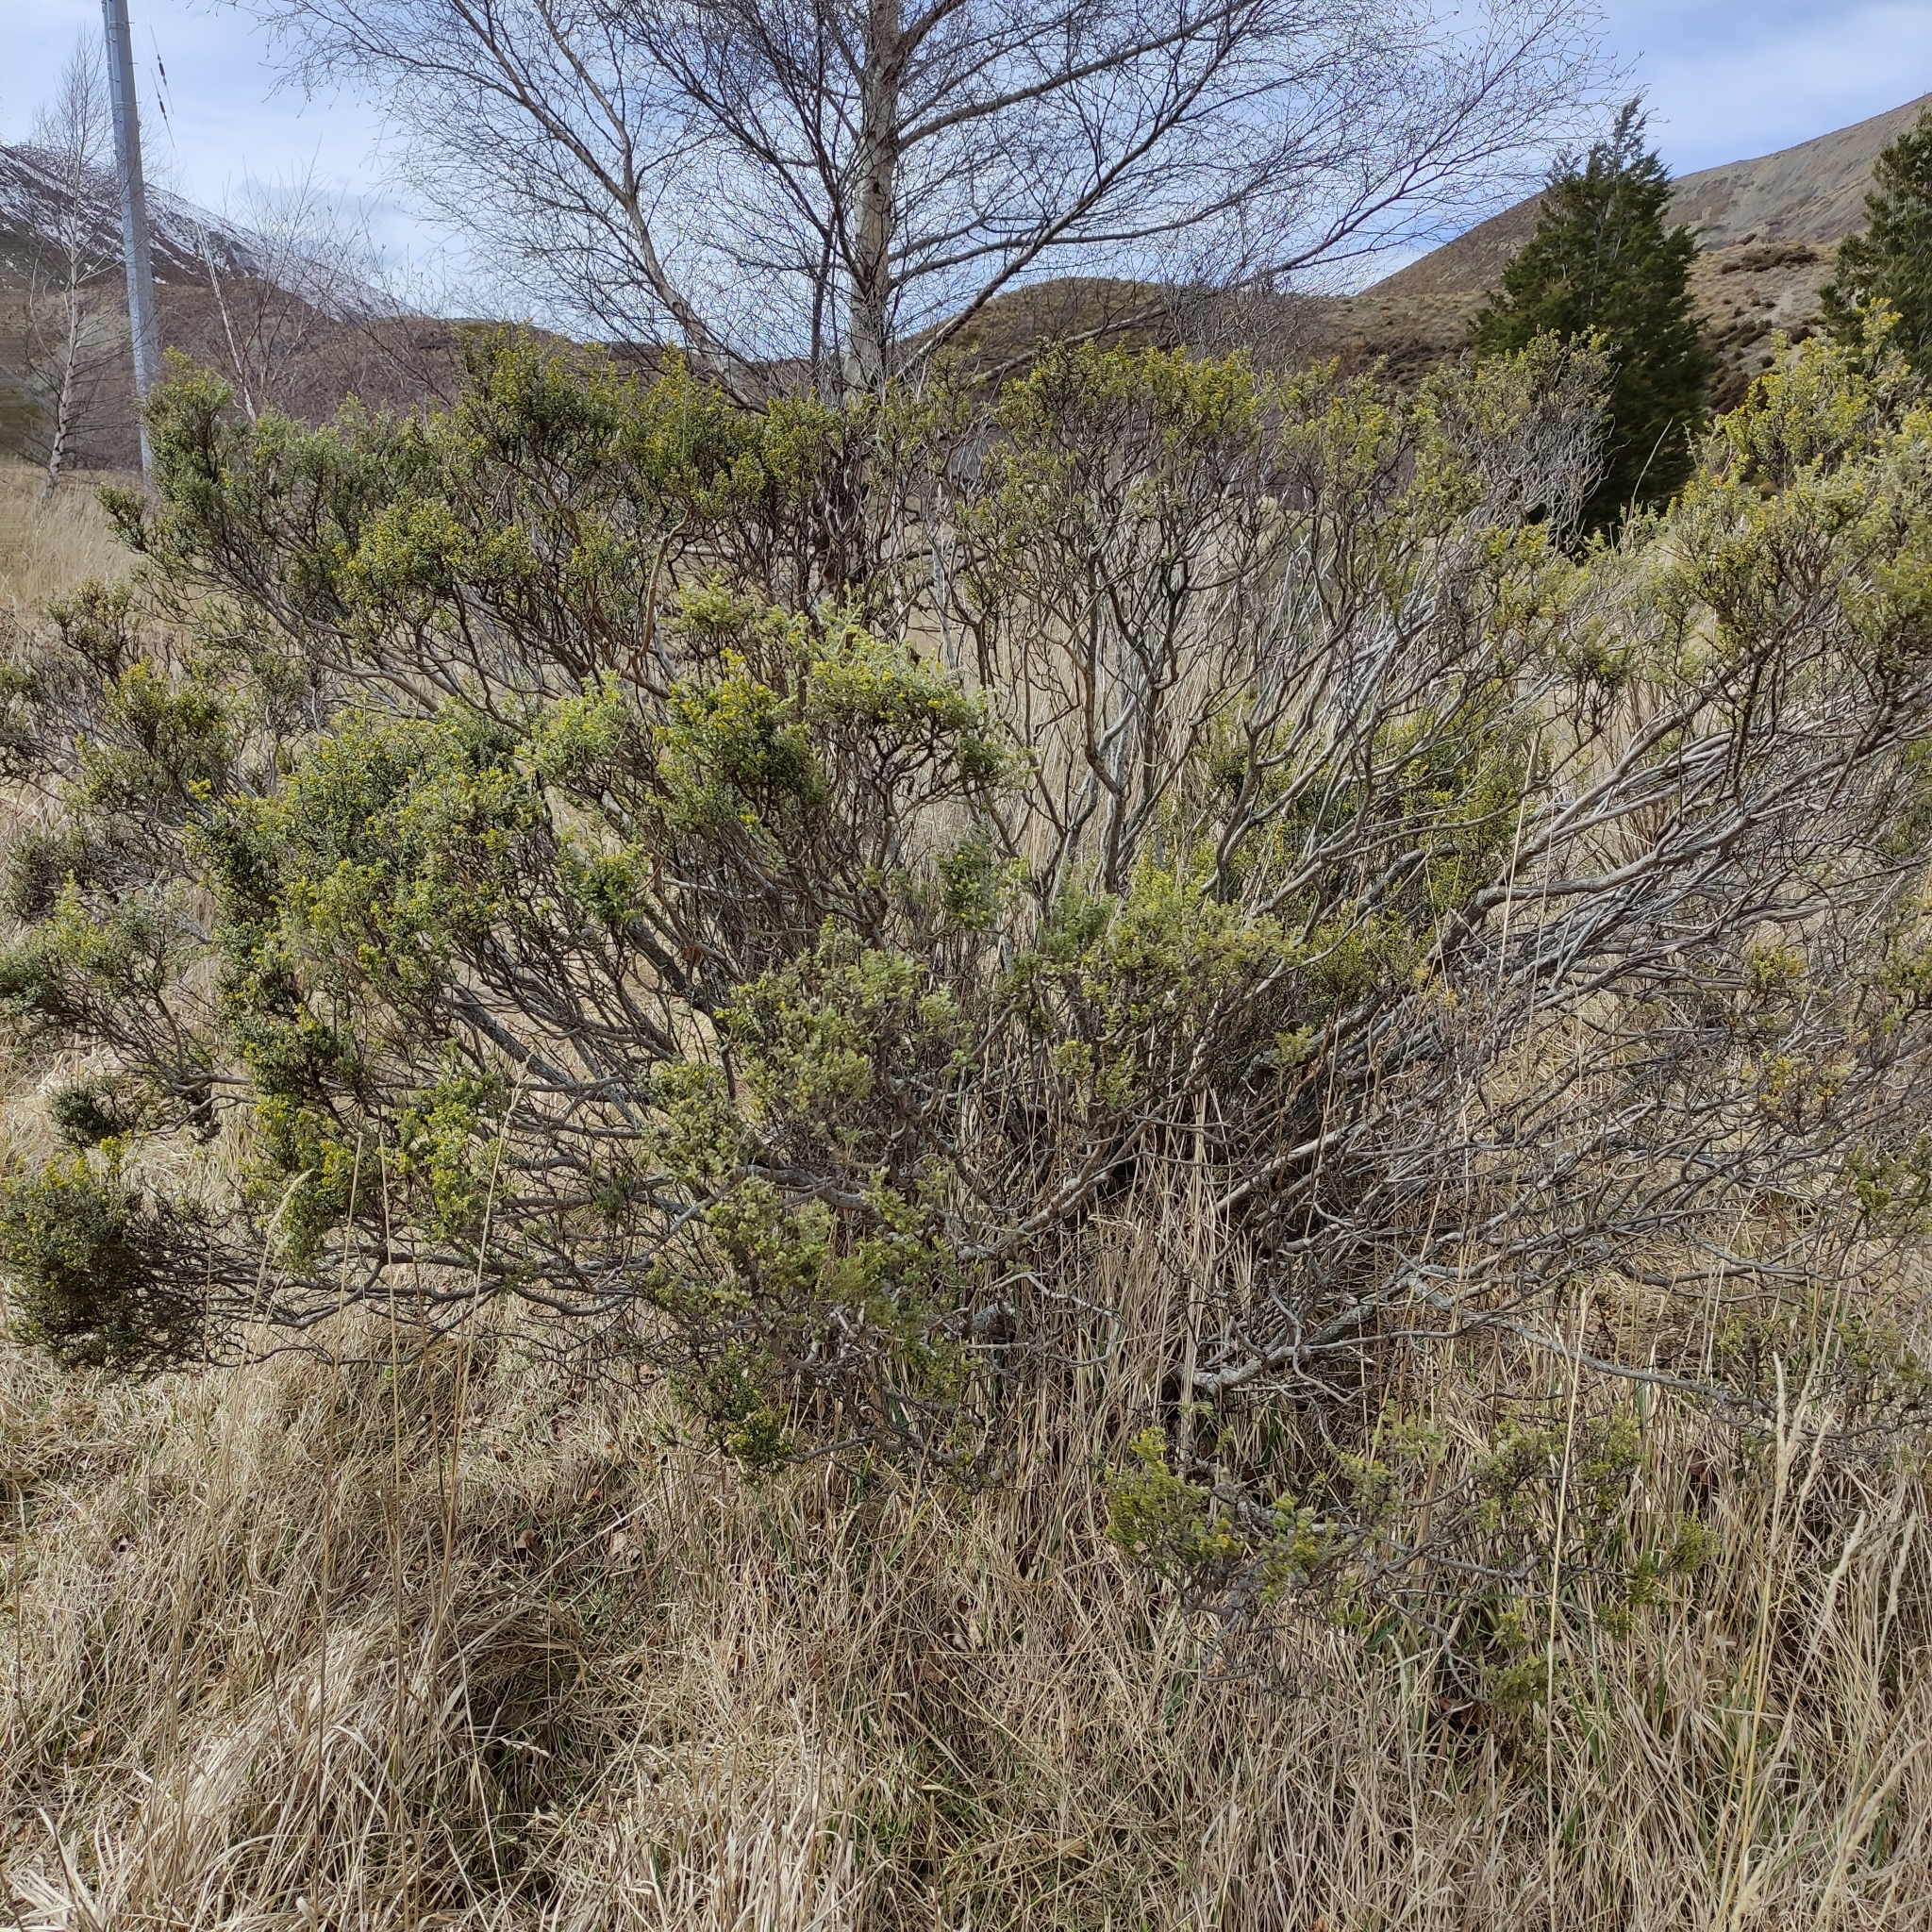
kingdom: Plantae
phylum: Tracheophyta
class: Magnoliopsida
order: Asterales
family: Asteraceae
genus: Ozothamnus
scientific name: Ozothamnus leptophyllus
